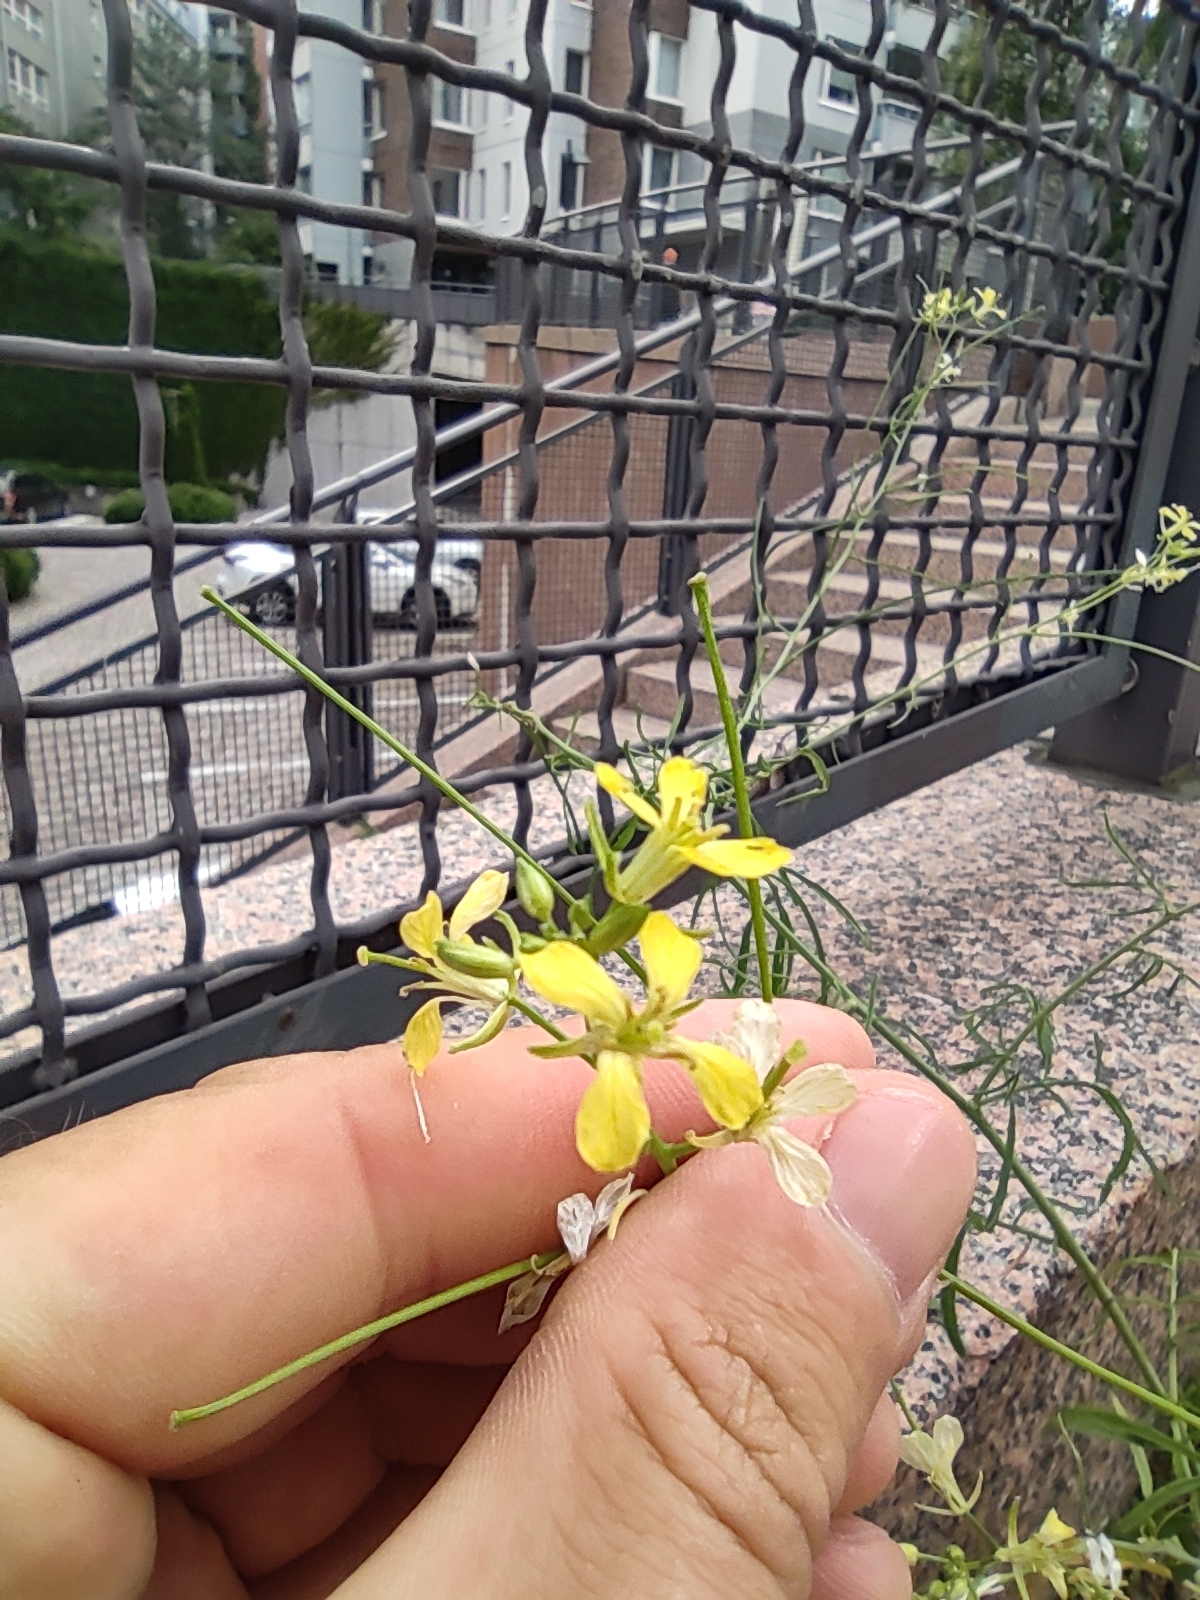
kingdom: Plantae
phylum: Tracheophyta
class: Magnoliopsida
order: Brassicales
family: Brassicaceae
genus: Sisymbrium
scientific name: Sisymbrium altissimum
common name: Tall rocket
